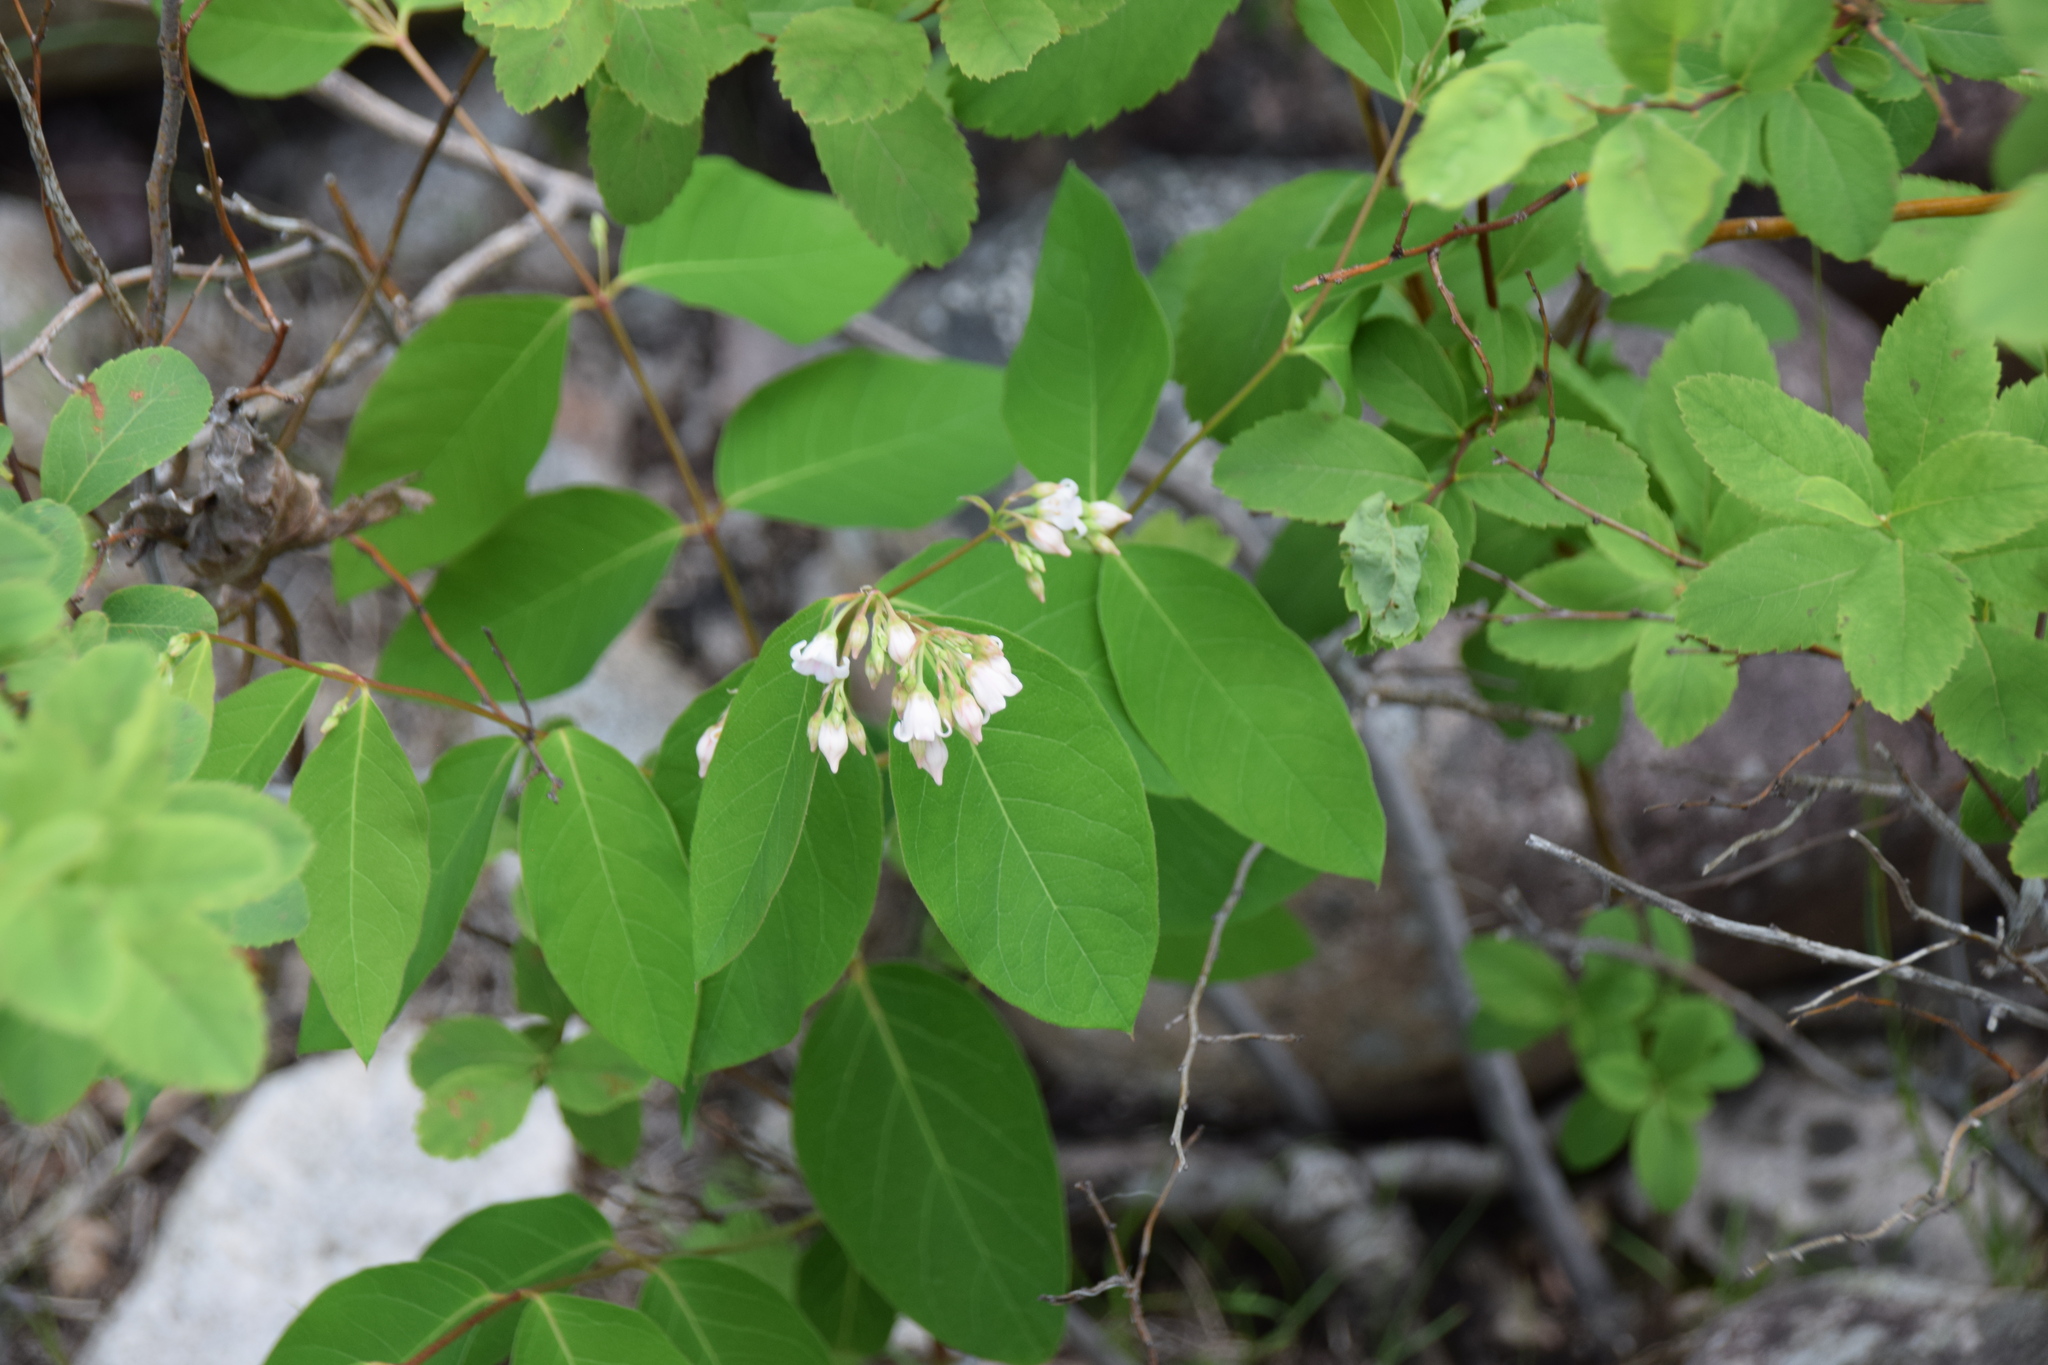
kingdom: Plantae
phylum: Tracheophyta
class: Magnoliopsida
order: Gentianales
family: Apocynaceae
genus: Apocynum
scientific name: Apocynum androsaemifolium
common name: Spreading dogbane
